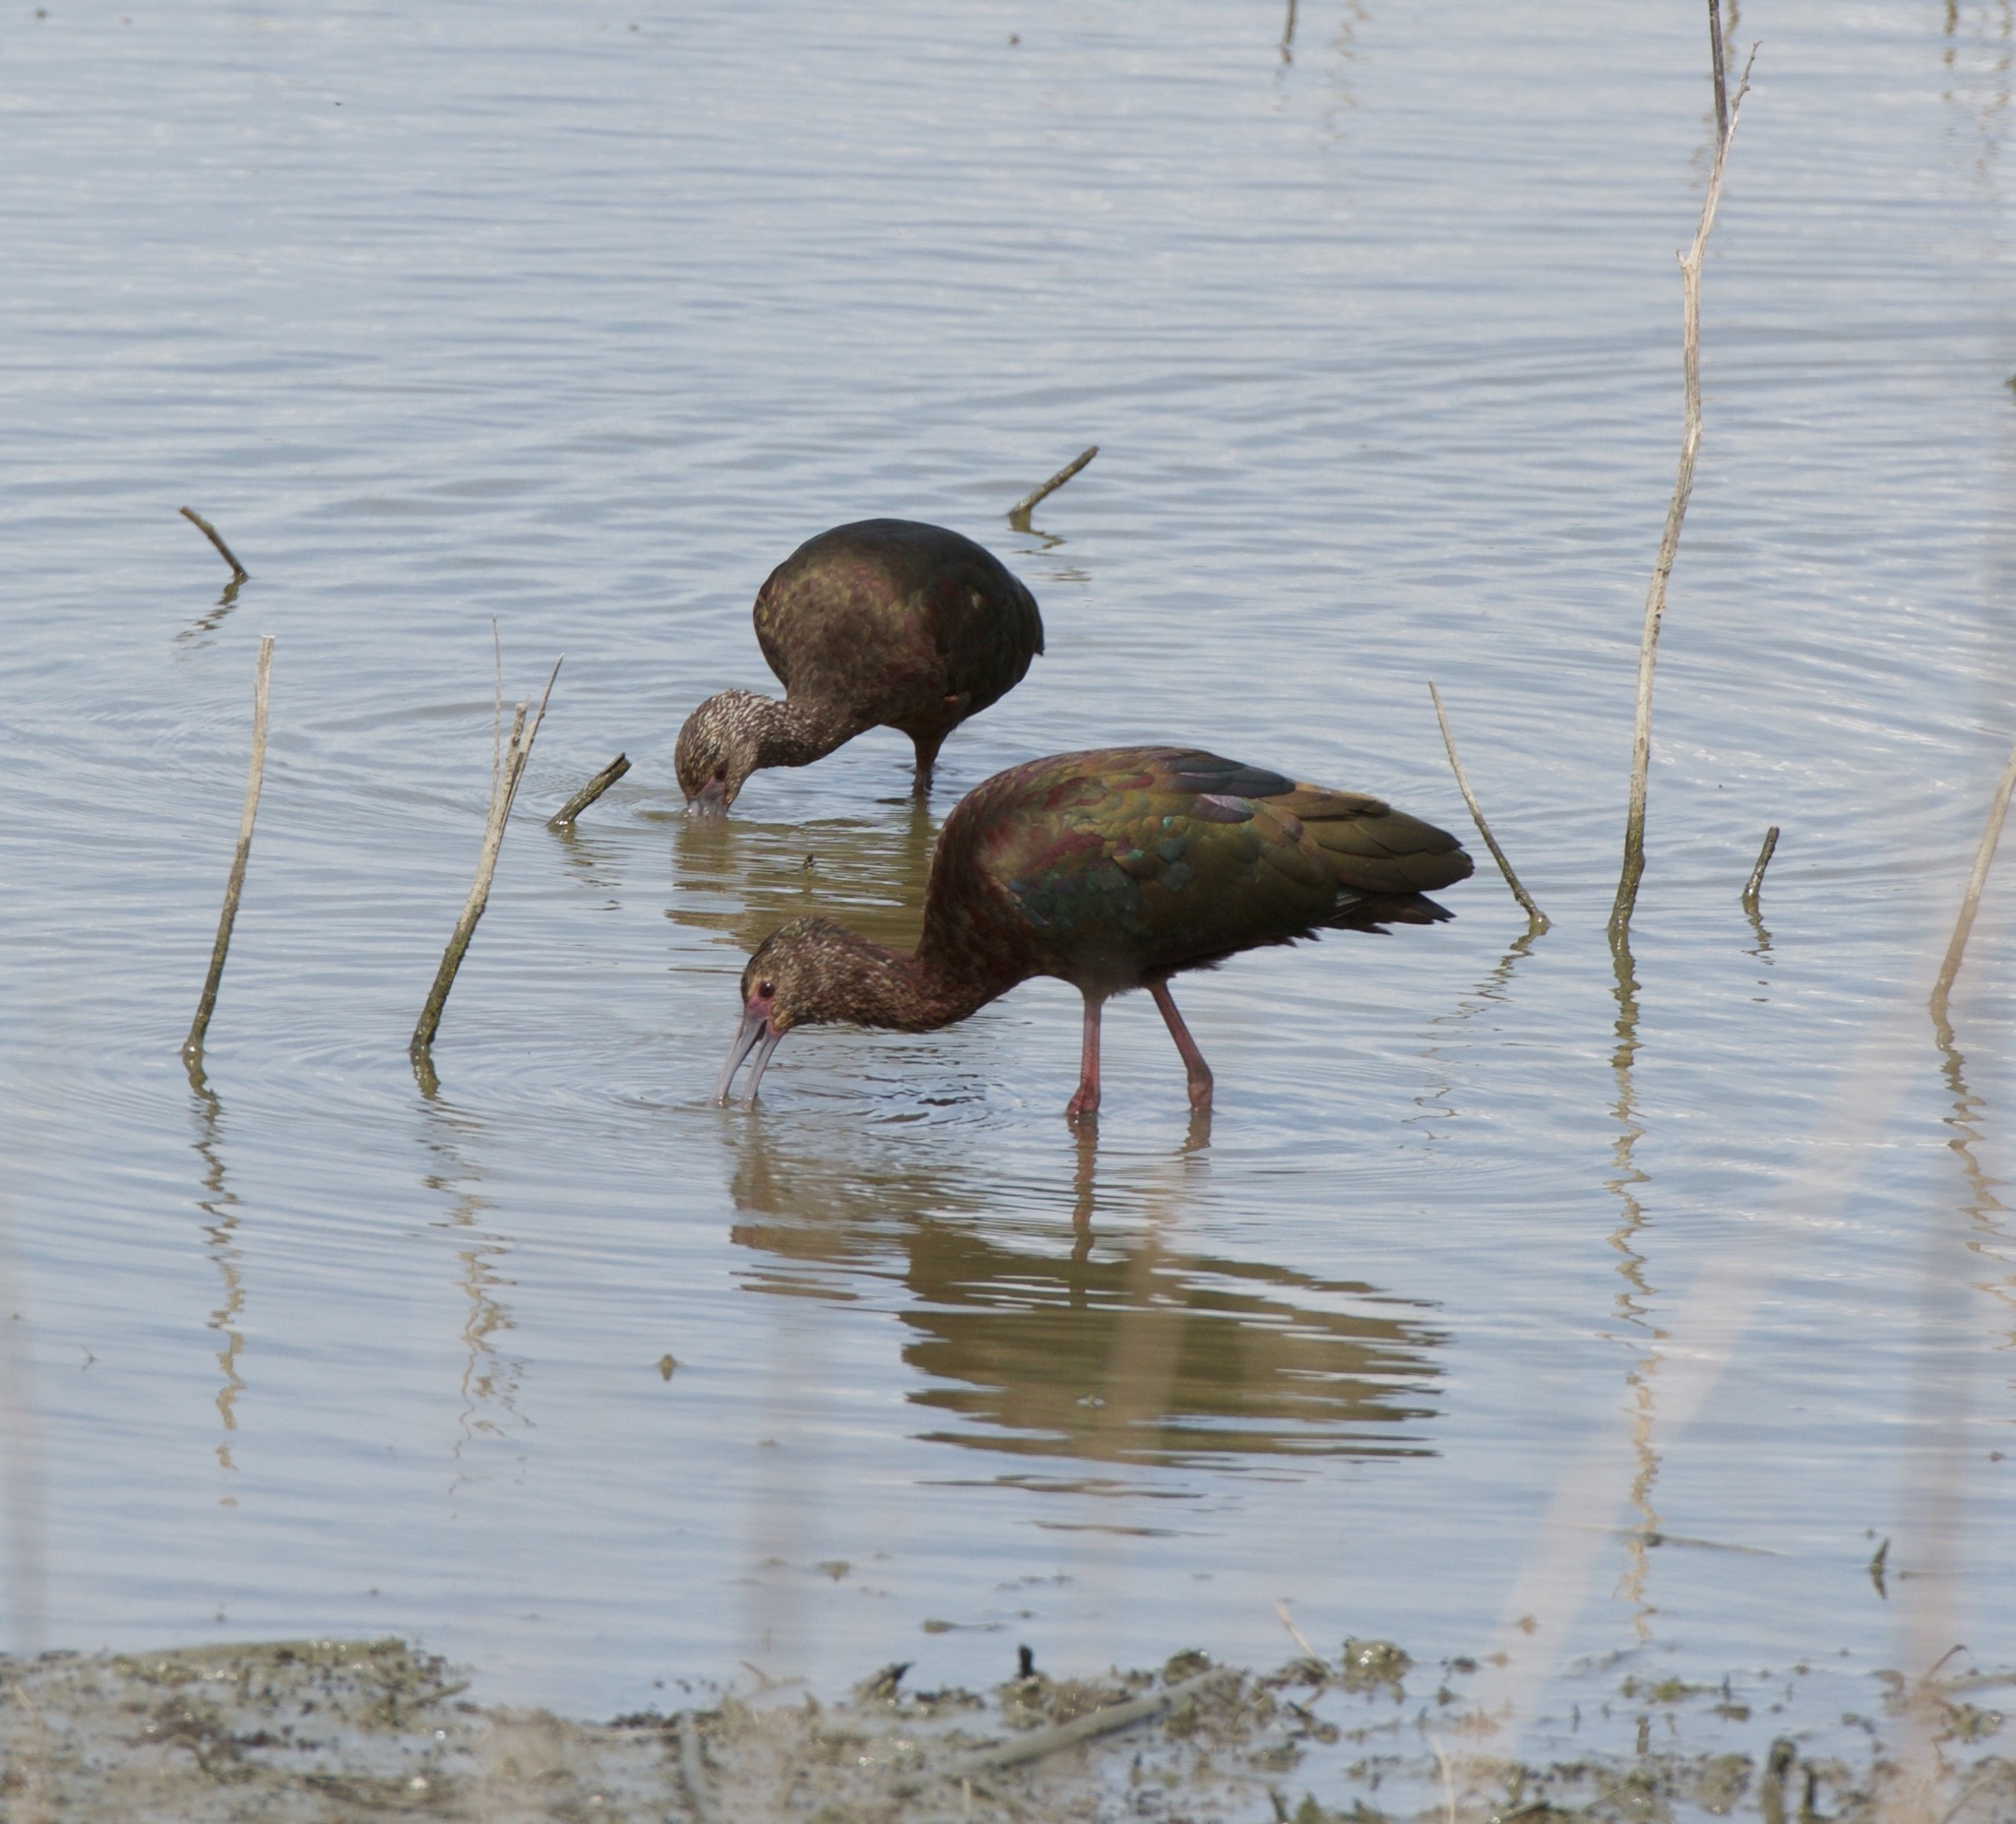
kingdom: Animalia
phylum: Chordata
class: Aves
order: Pelecaniformes
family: Threskiornithidae
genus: Plegadis
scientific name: Plegadis chihi
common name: White-faced ibis
